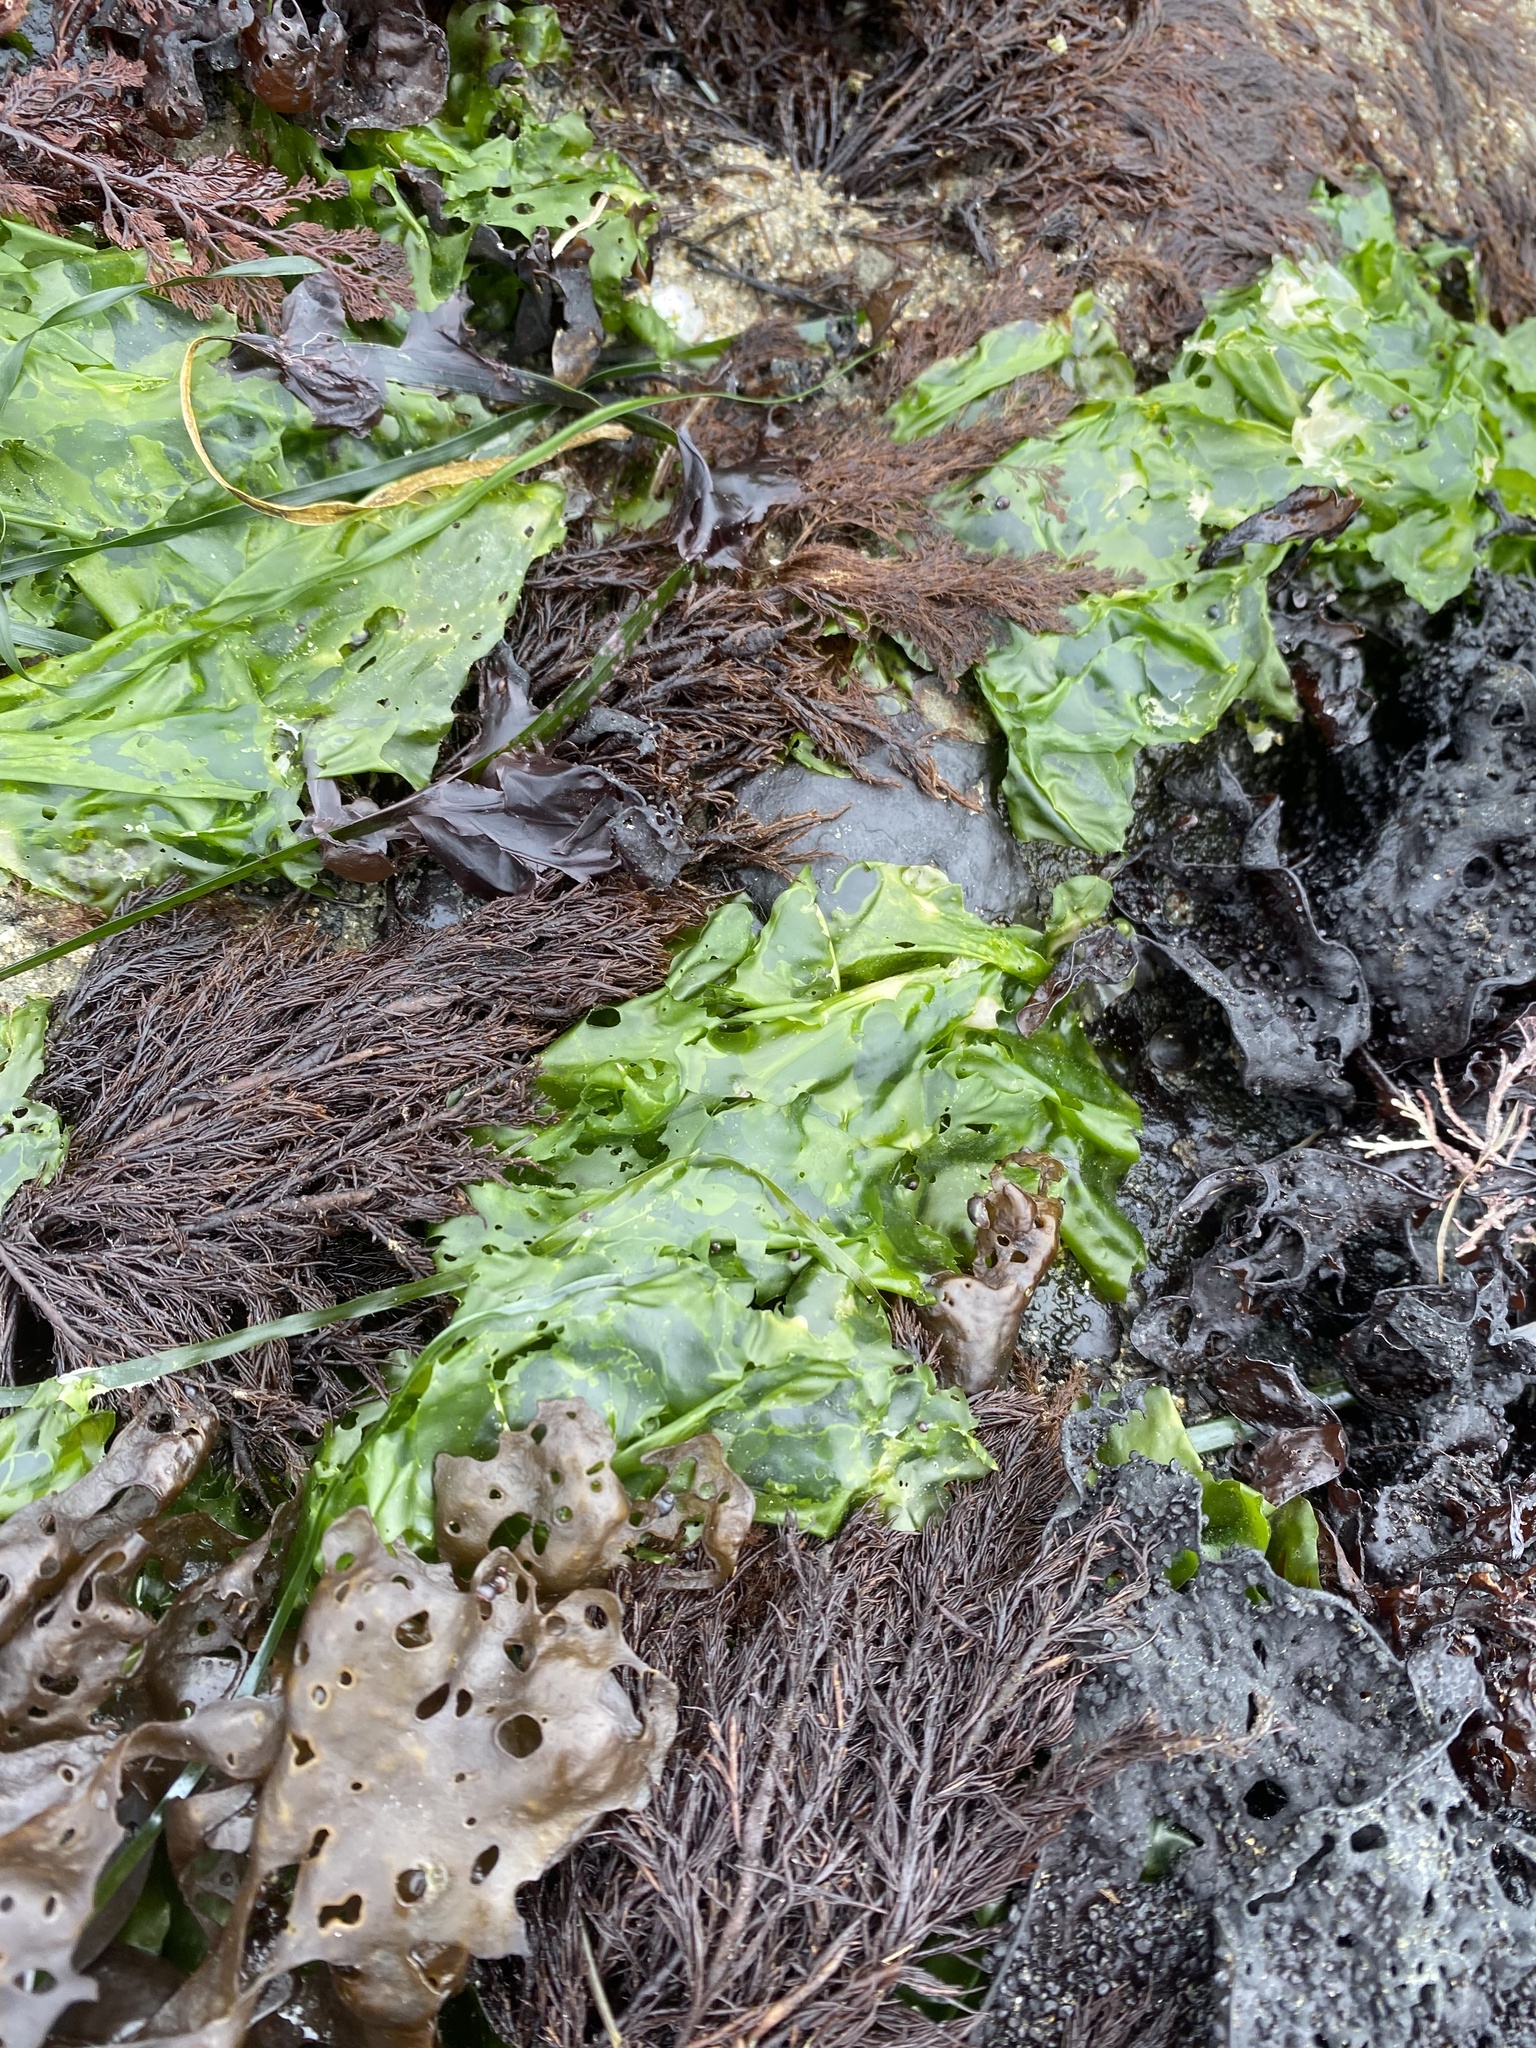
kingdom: Plantae
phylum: Chlorophyta
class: Ulvophyceae
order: Ulvales
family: Ulvaceae
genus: Ulva
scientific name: Ulva lactuca
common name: Sea lettuce
